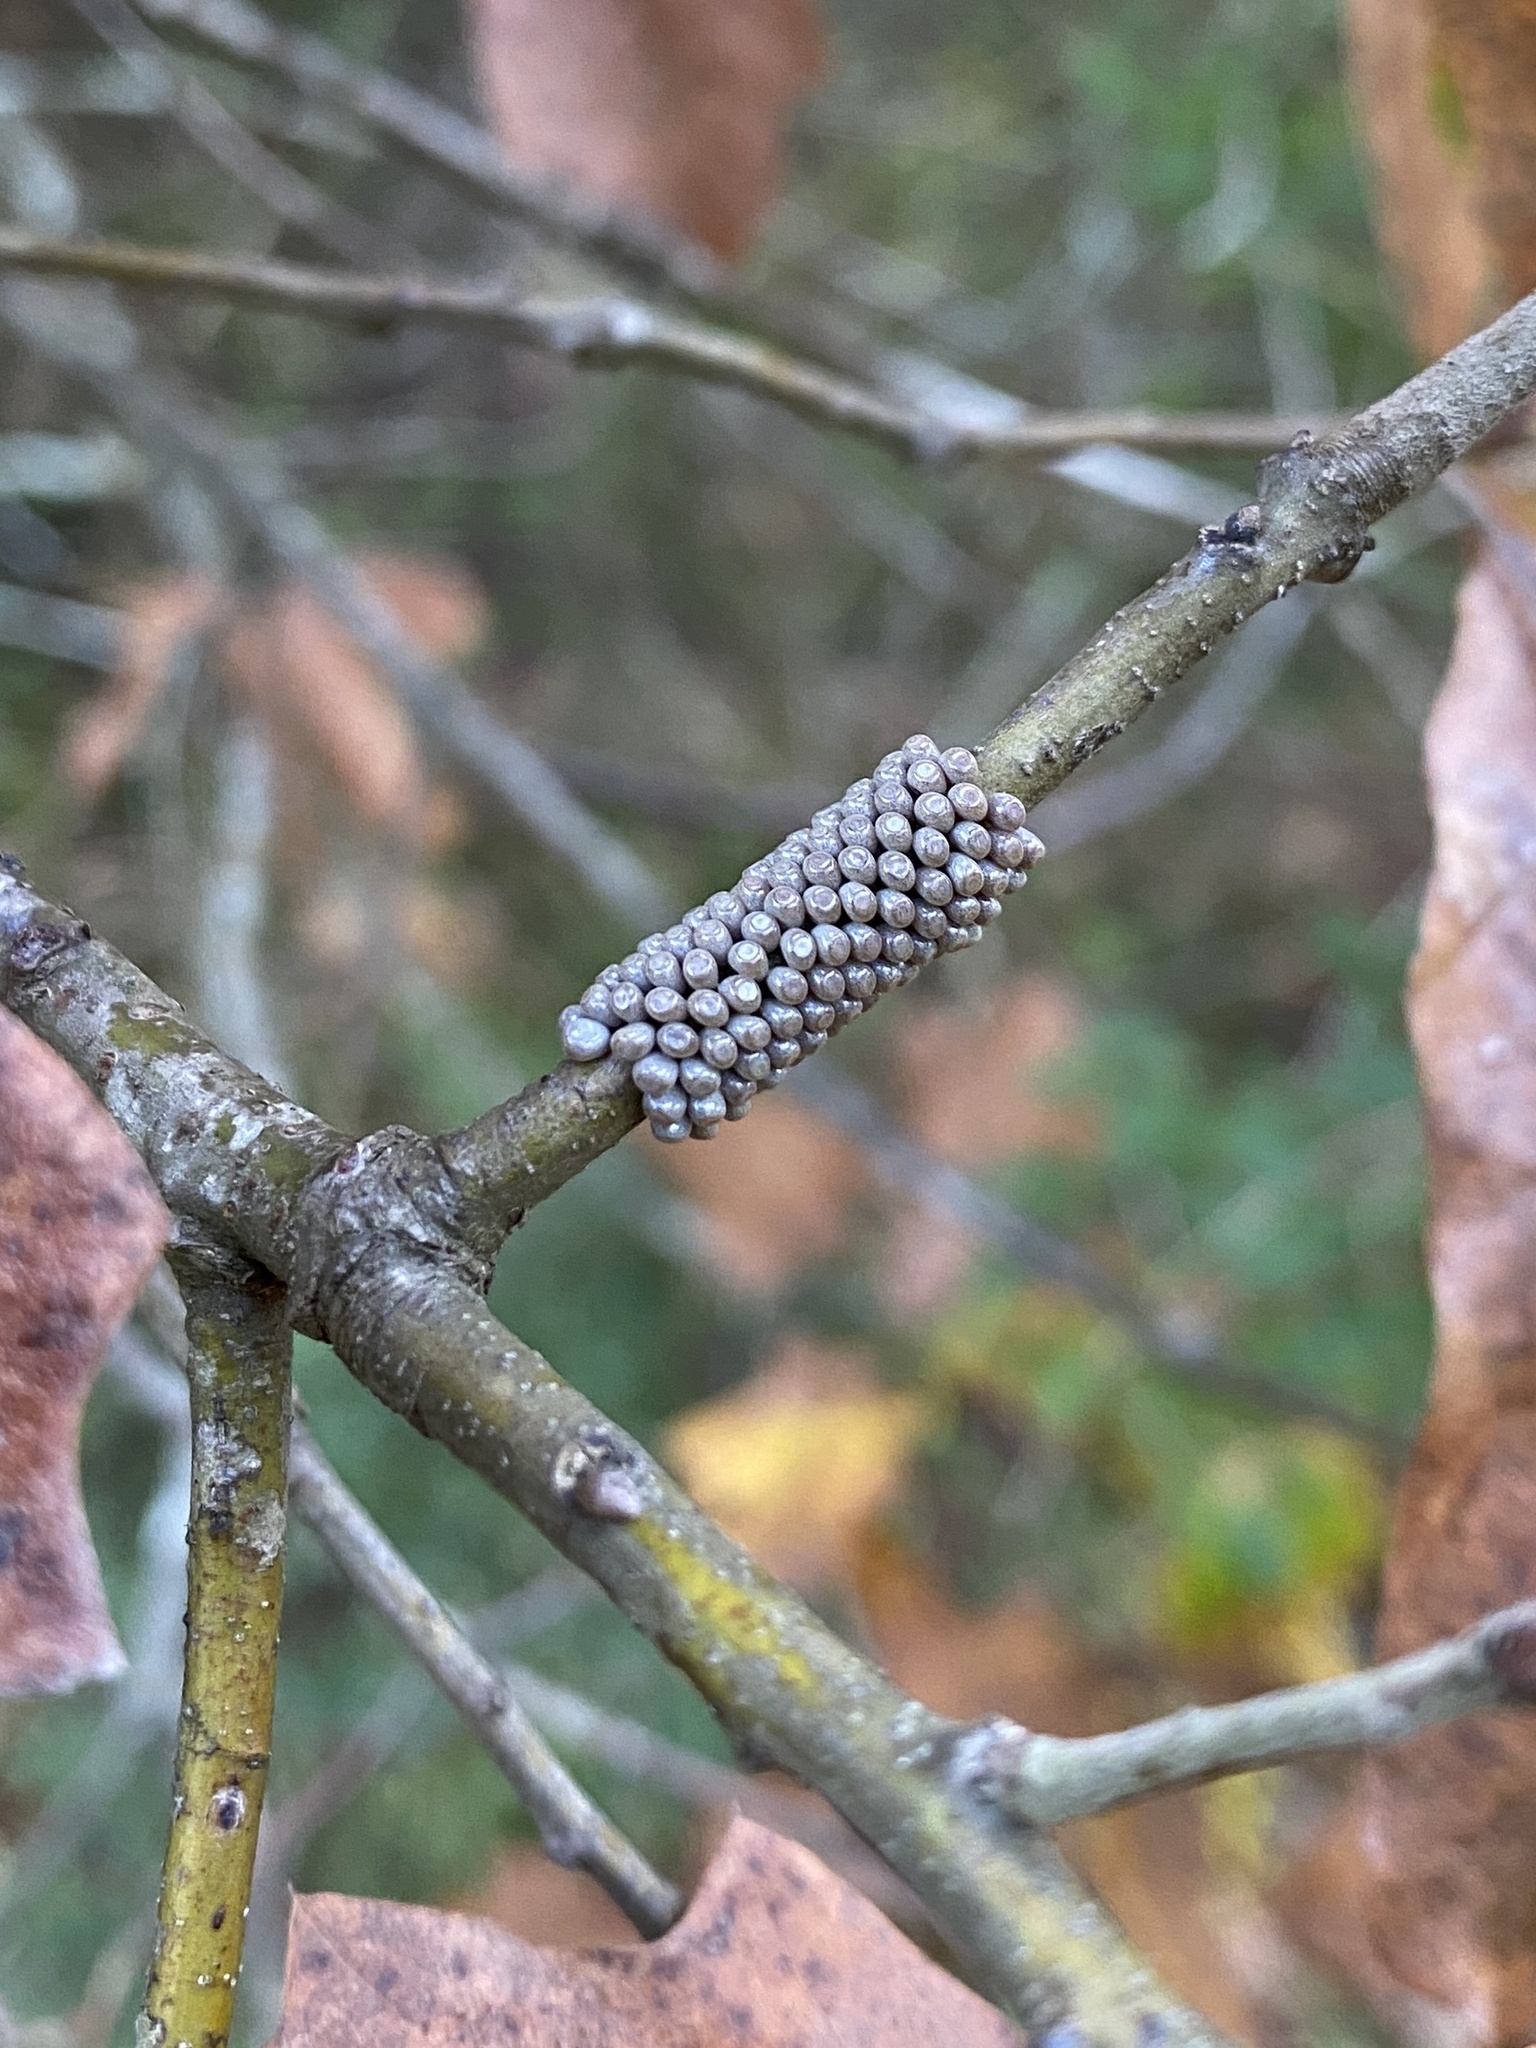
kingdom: Animalia
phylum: Arthropoda
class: Insecta
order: Lepidoptera
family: Saturniidae
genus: Hemileuca
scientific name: Hemileuca maia
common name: Eastern buckmoth
